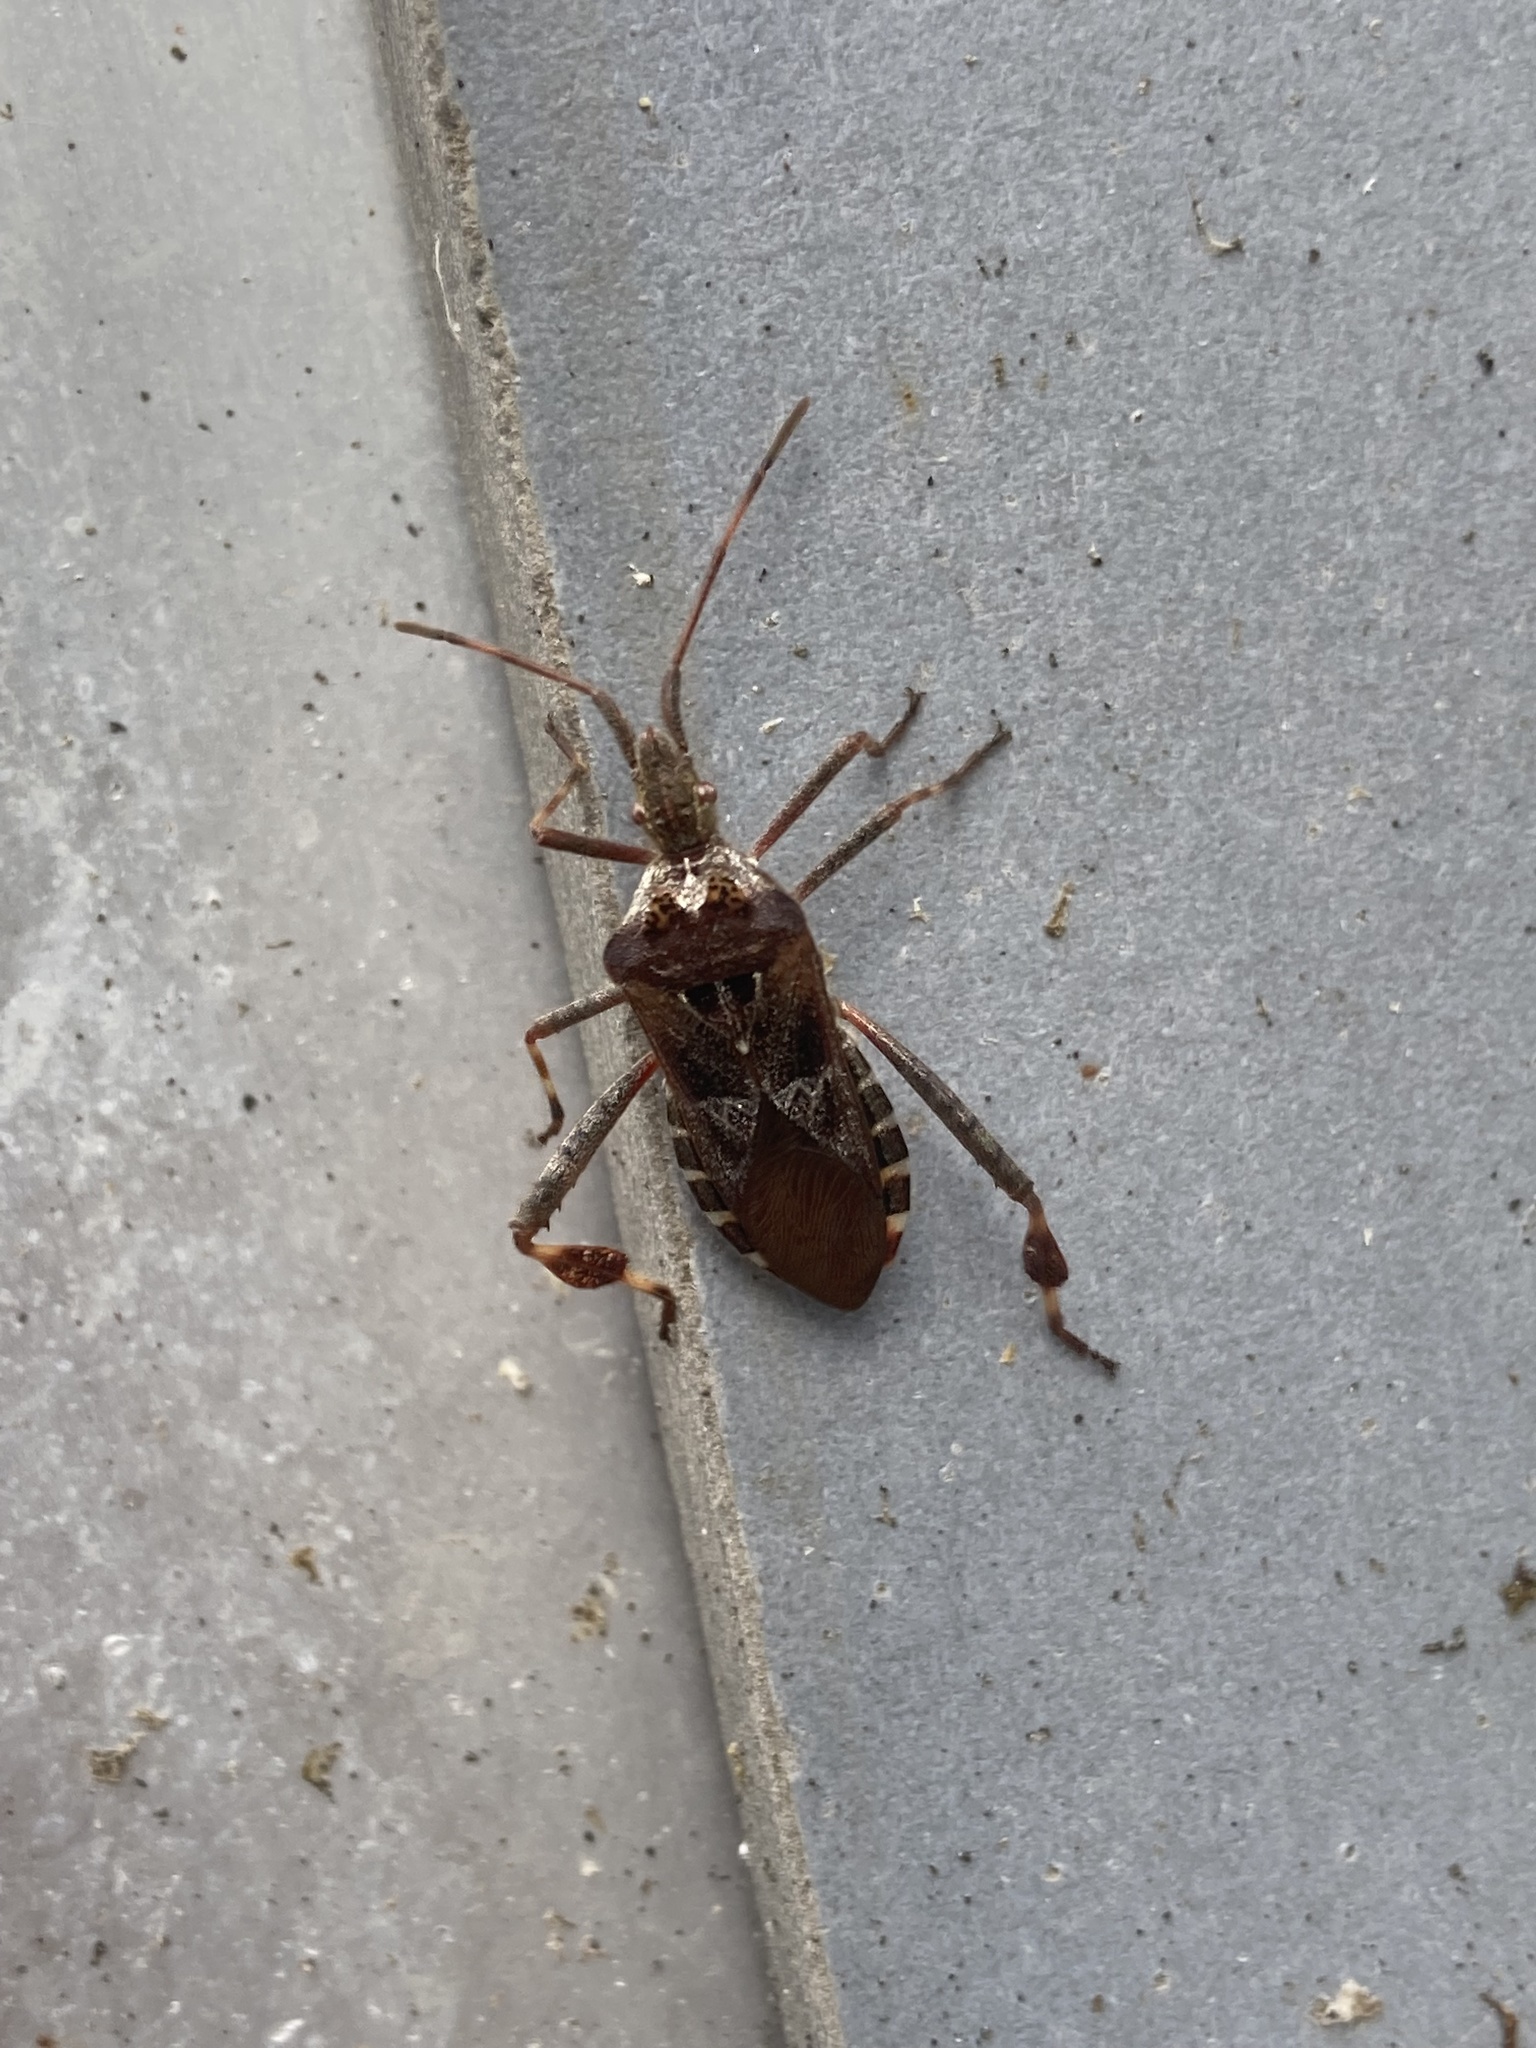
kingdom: Animalia
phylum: Arthropoda
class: Insecta
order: Hemiptera
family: Coreidae
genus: Leptoglossus
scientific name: Leptoglossus occidentalis
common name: Western conifer-seed bug
